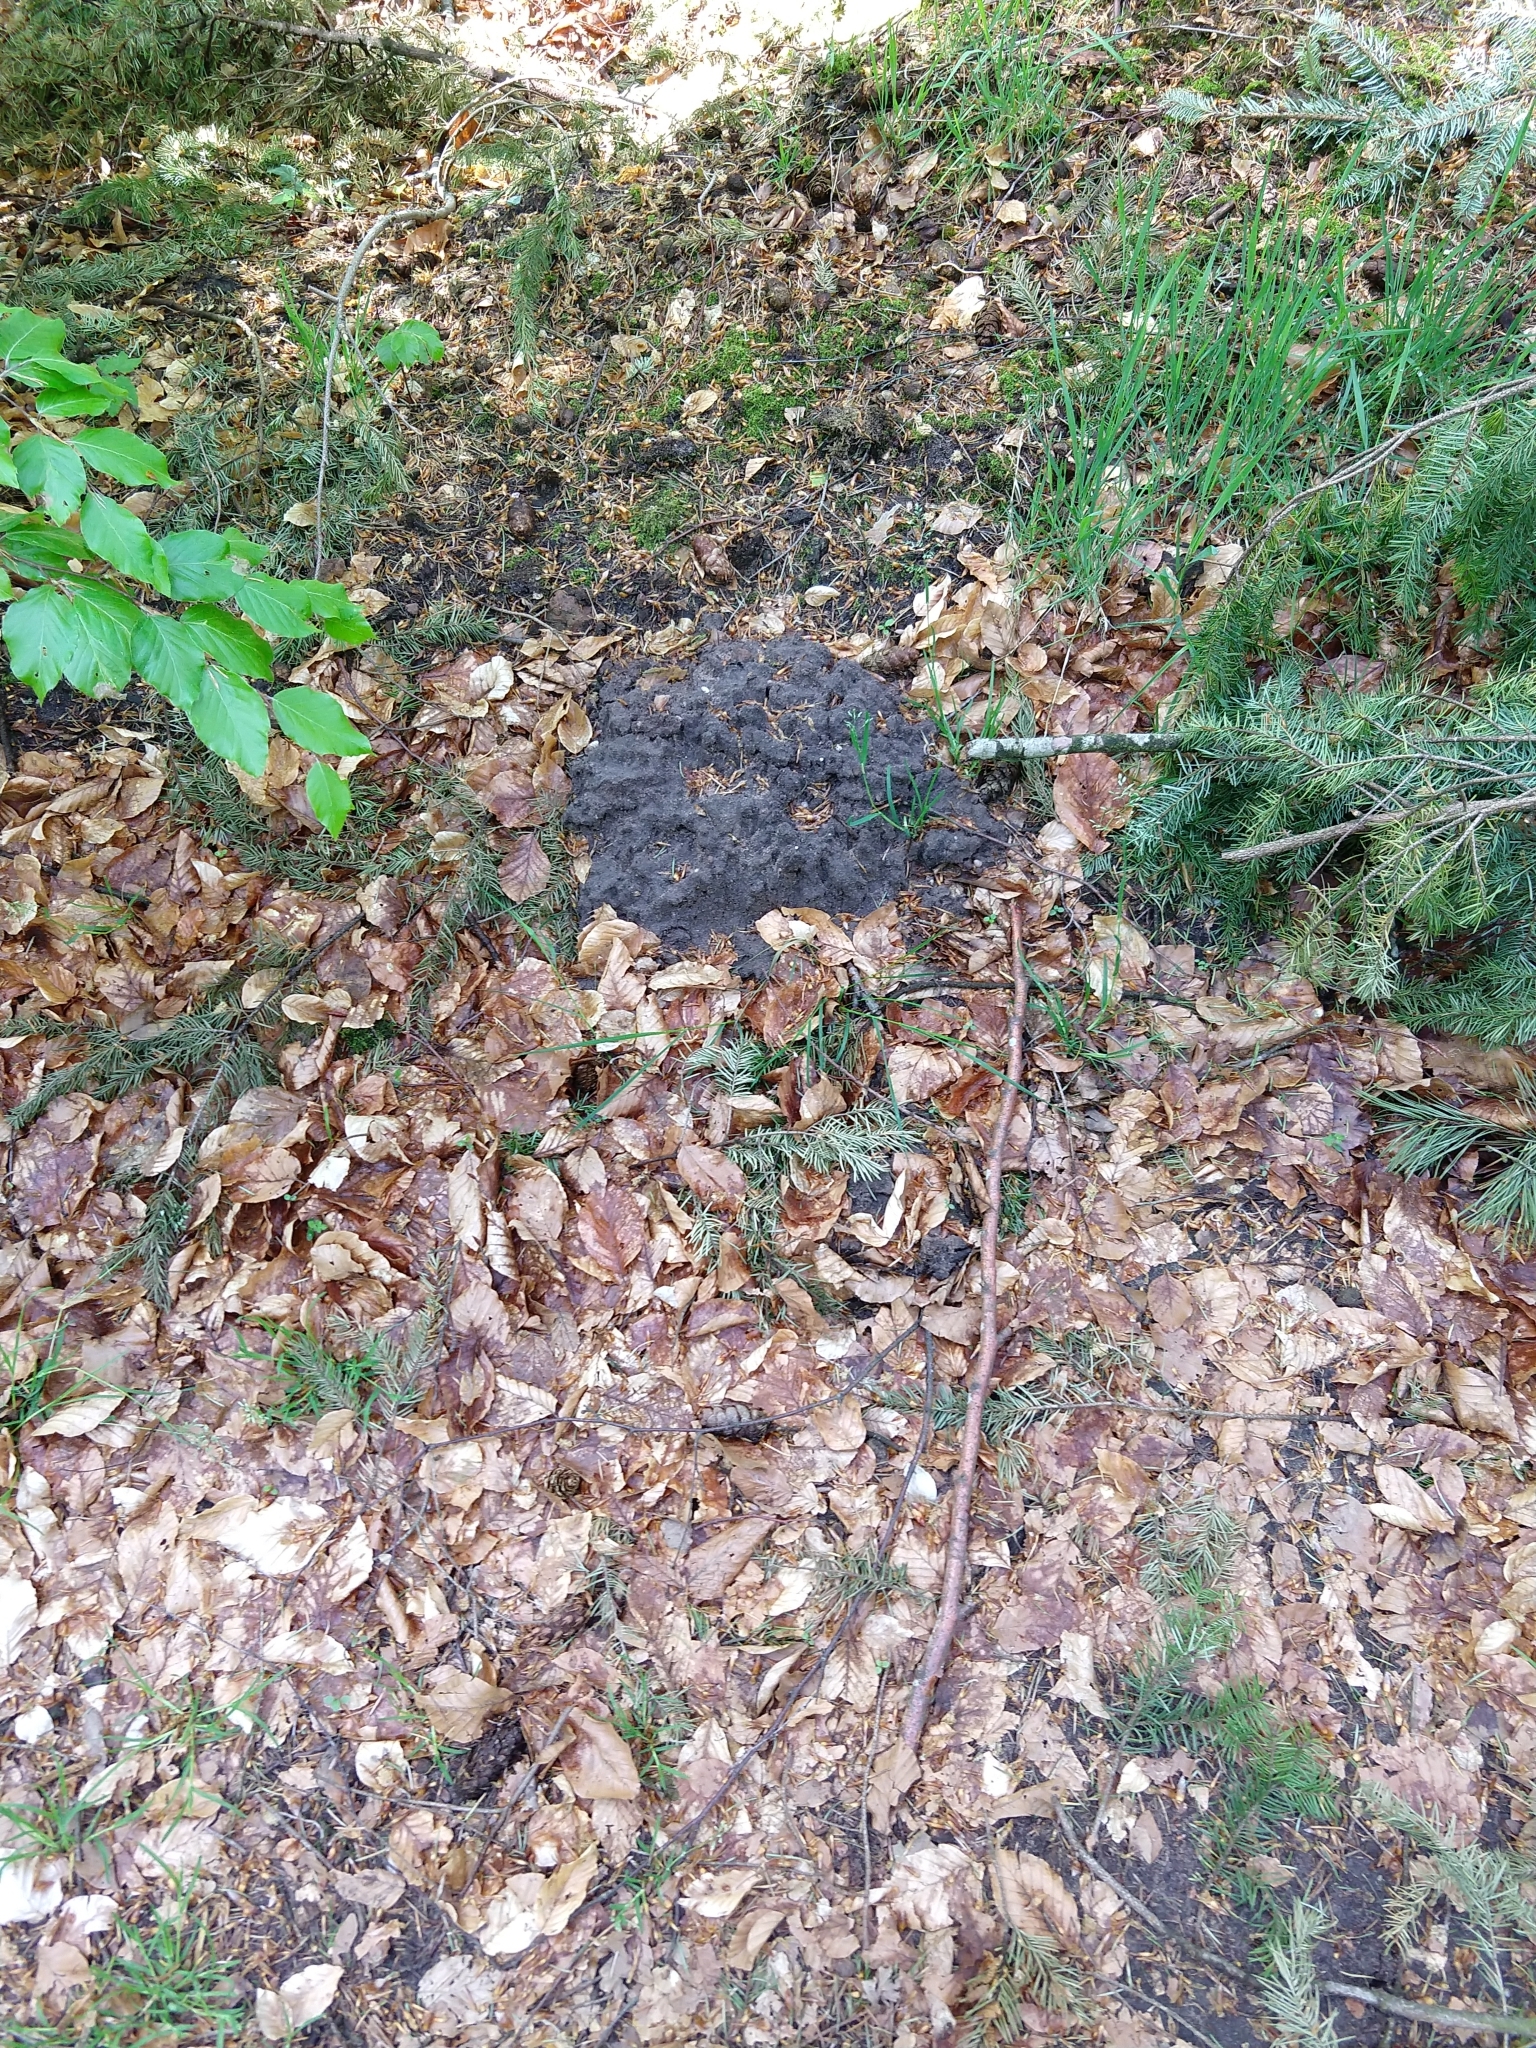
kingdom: Animalia
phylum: Chordata
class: Mammalia
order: Soricomorpha
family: Talpidae
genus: Talpa
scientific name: Talpa europaea
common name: European mole
